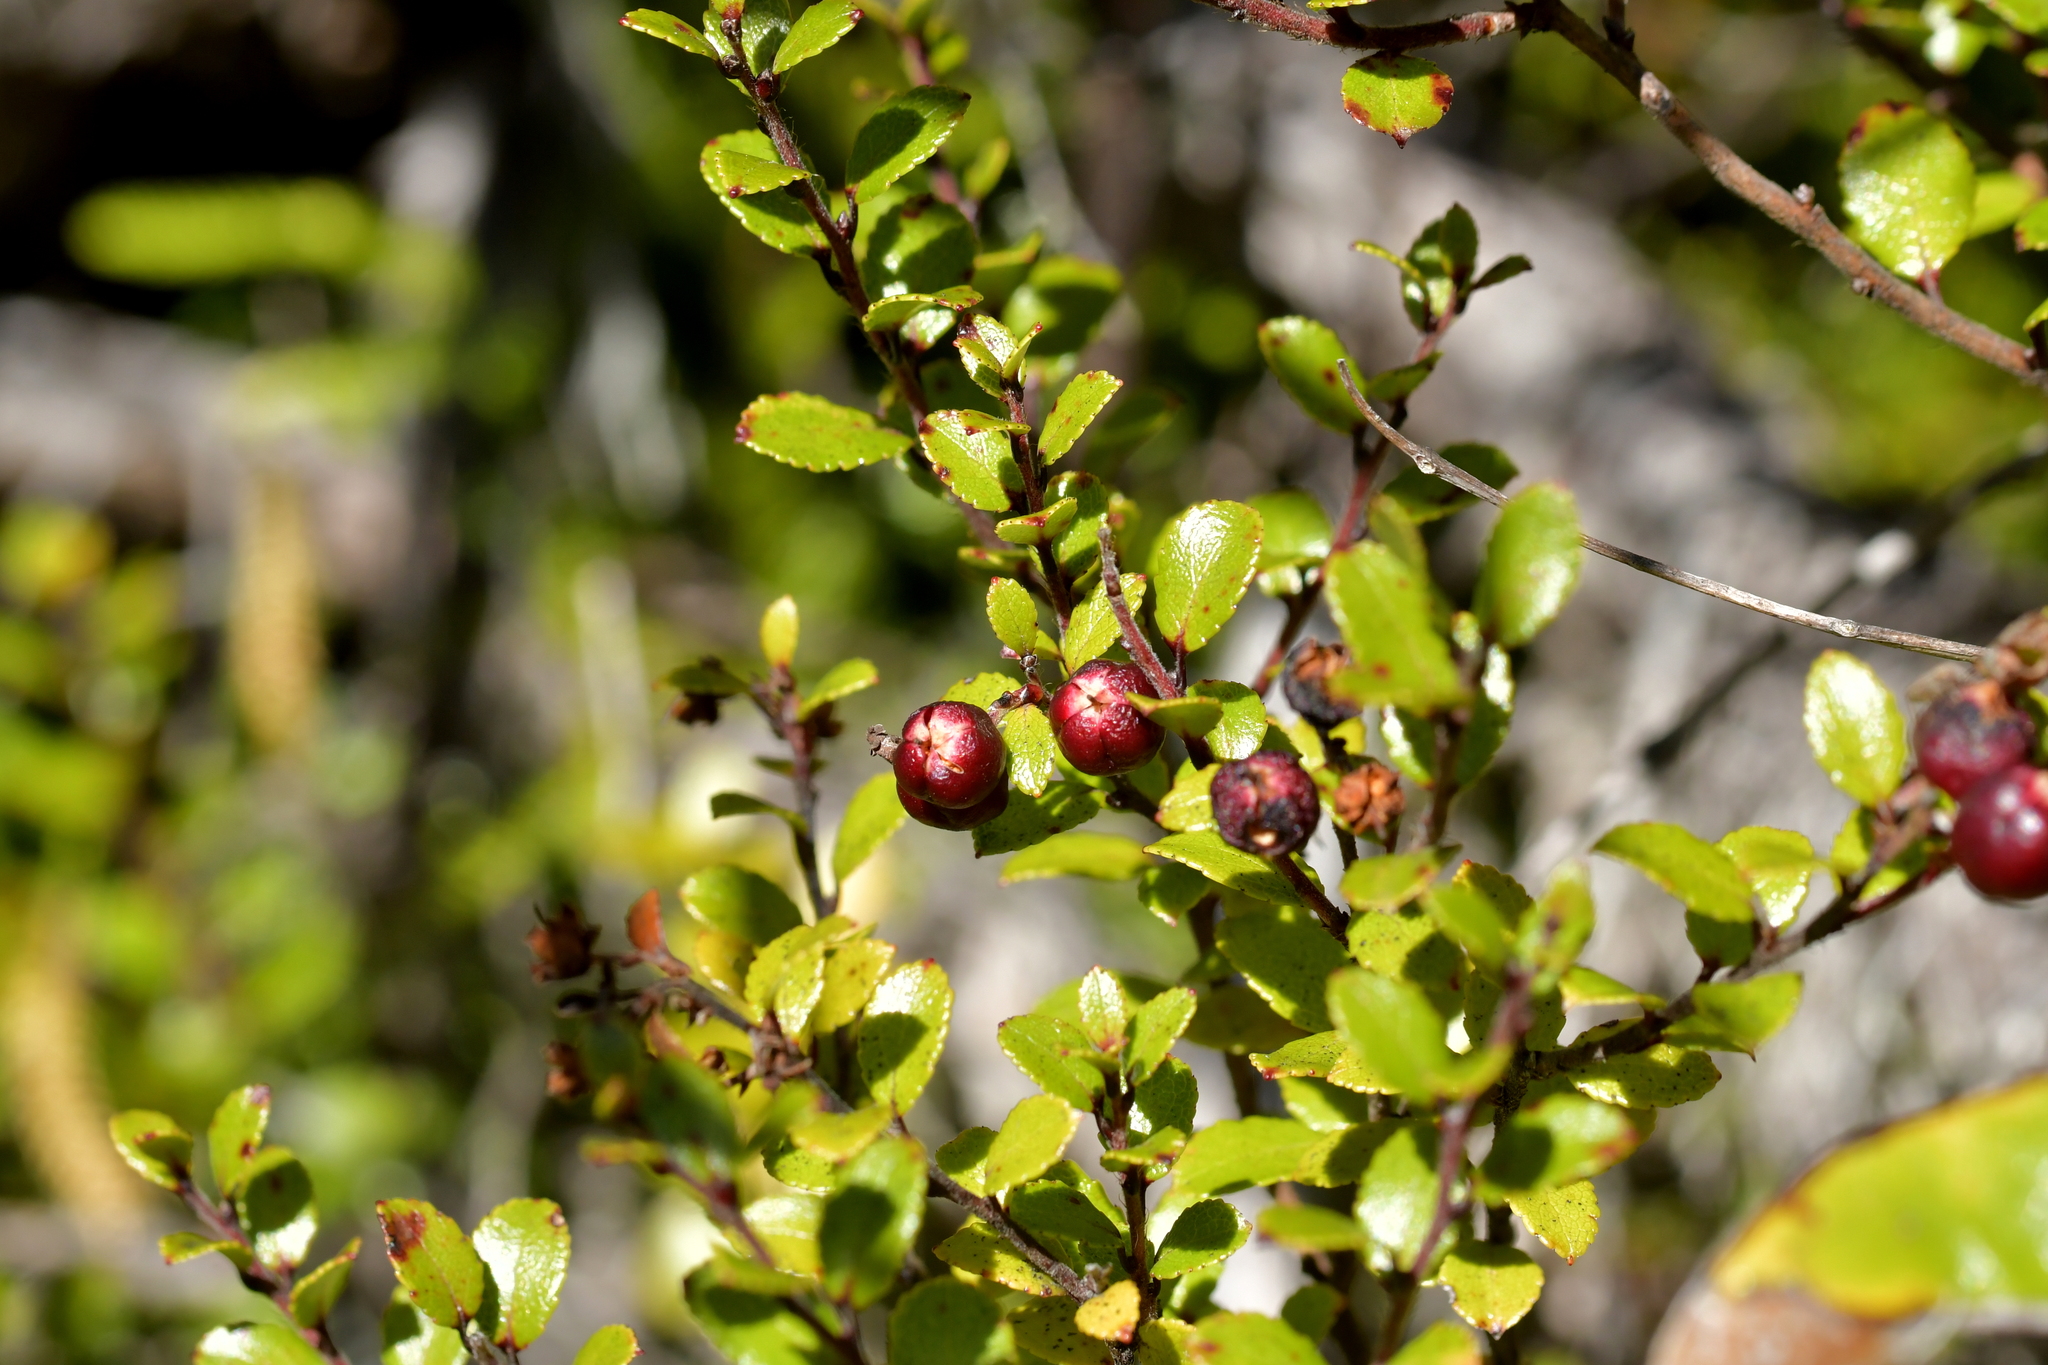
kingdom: Plantae
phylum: Tracheophyta
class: Magnoliopsida
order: Ericales
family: Ericaceae
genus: Gaultheria
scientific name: Gaultheria antipoda
